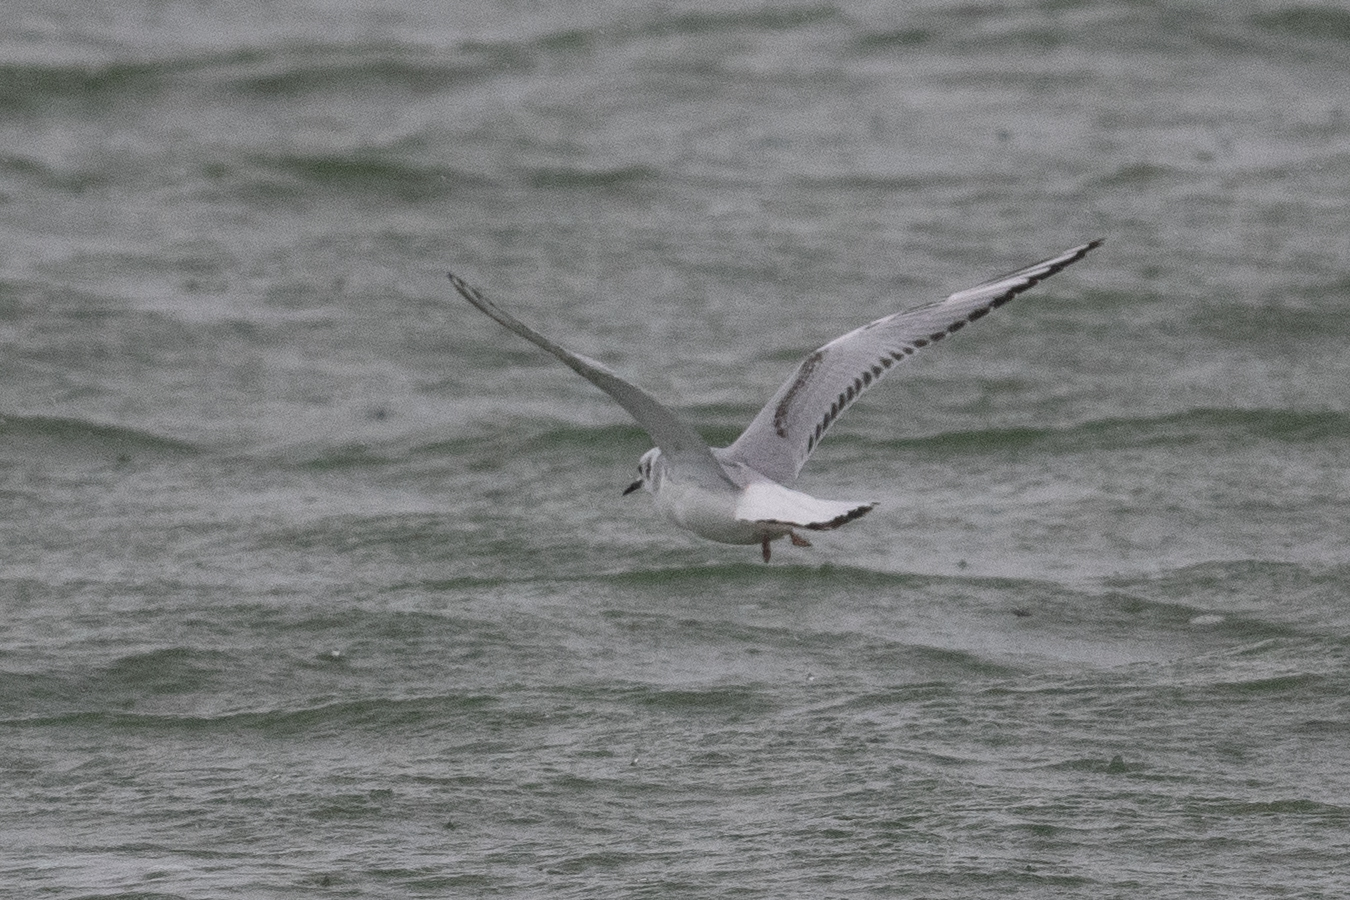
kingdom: Animalia
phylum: Chordata
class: Aves
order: Charadriiformes
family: Laridae
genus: Chroicocephalus
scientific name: Chroicocephalus philadelphia
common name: Bonaparte's gull
